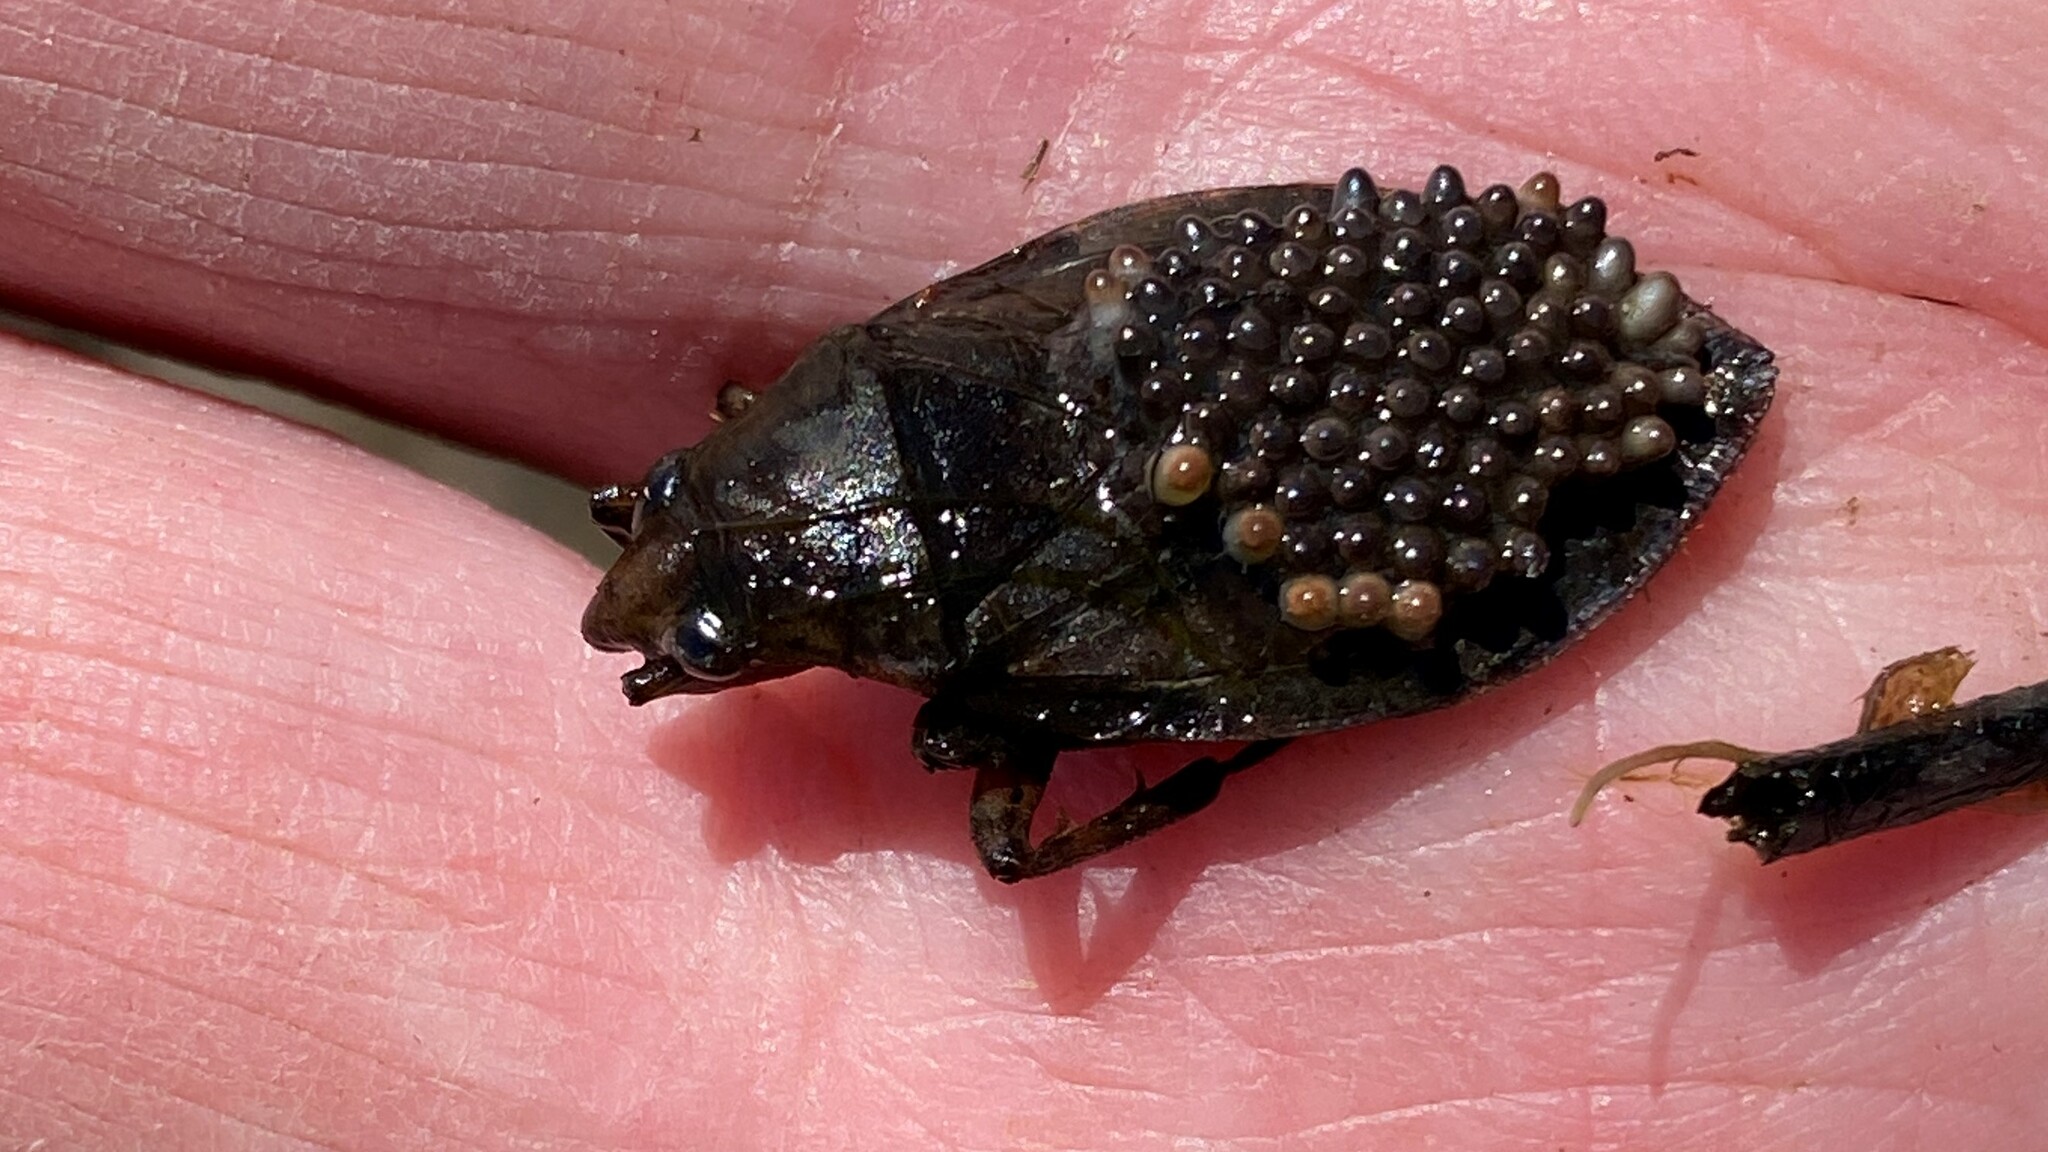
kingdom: Animalia
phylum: Arthropoda
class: Insecta
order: Hemiptera
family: Belostomatidae
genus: Belostoma
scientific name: Belostoma
